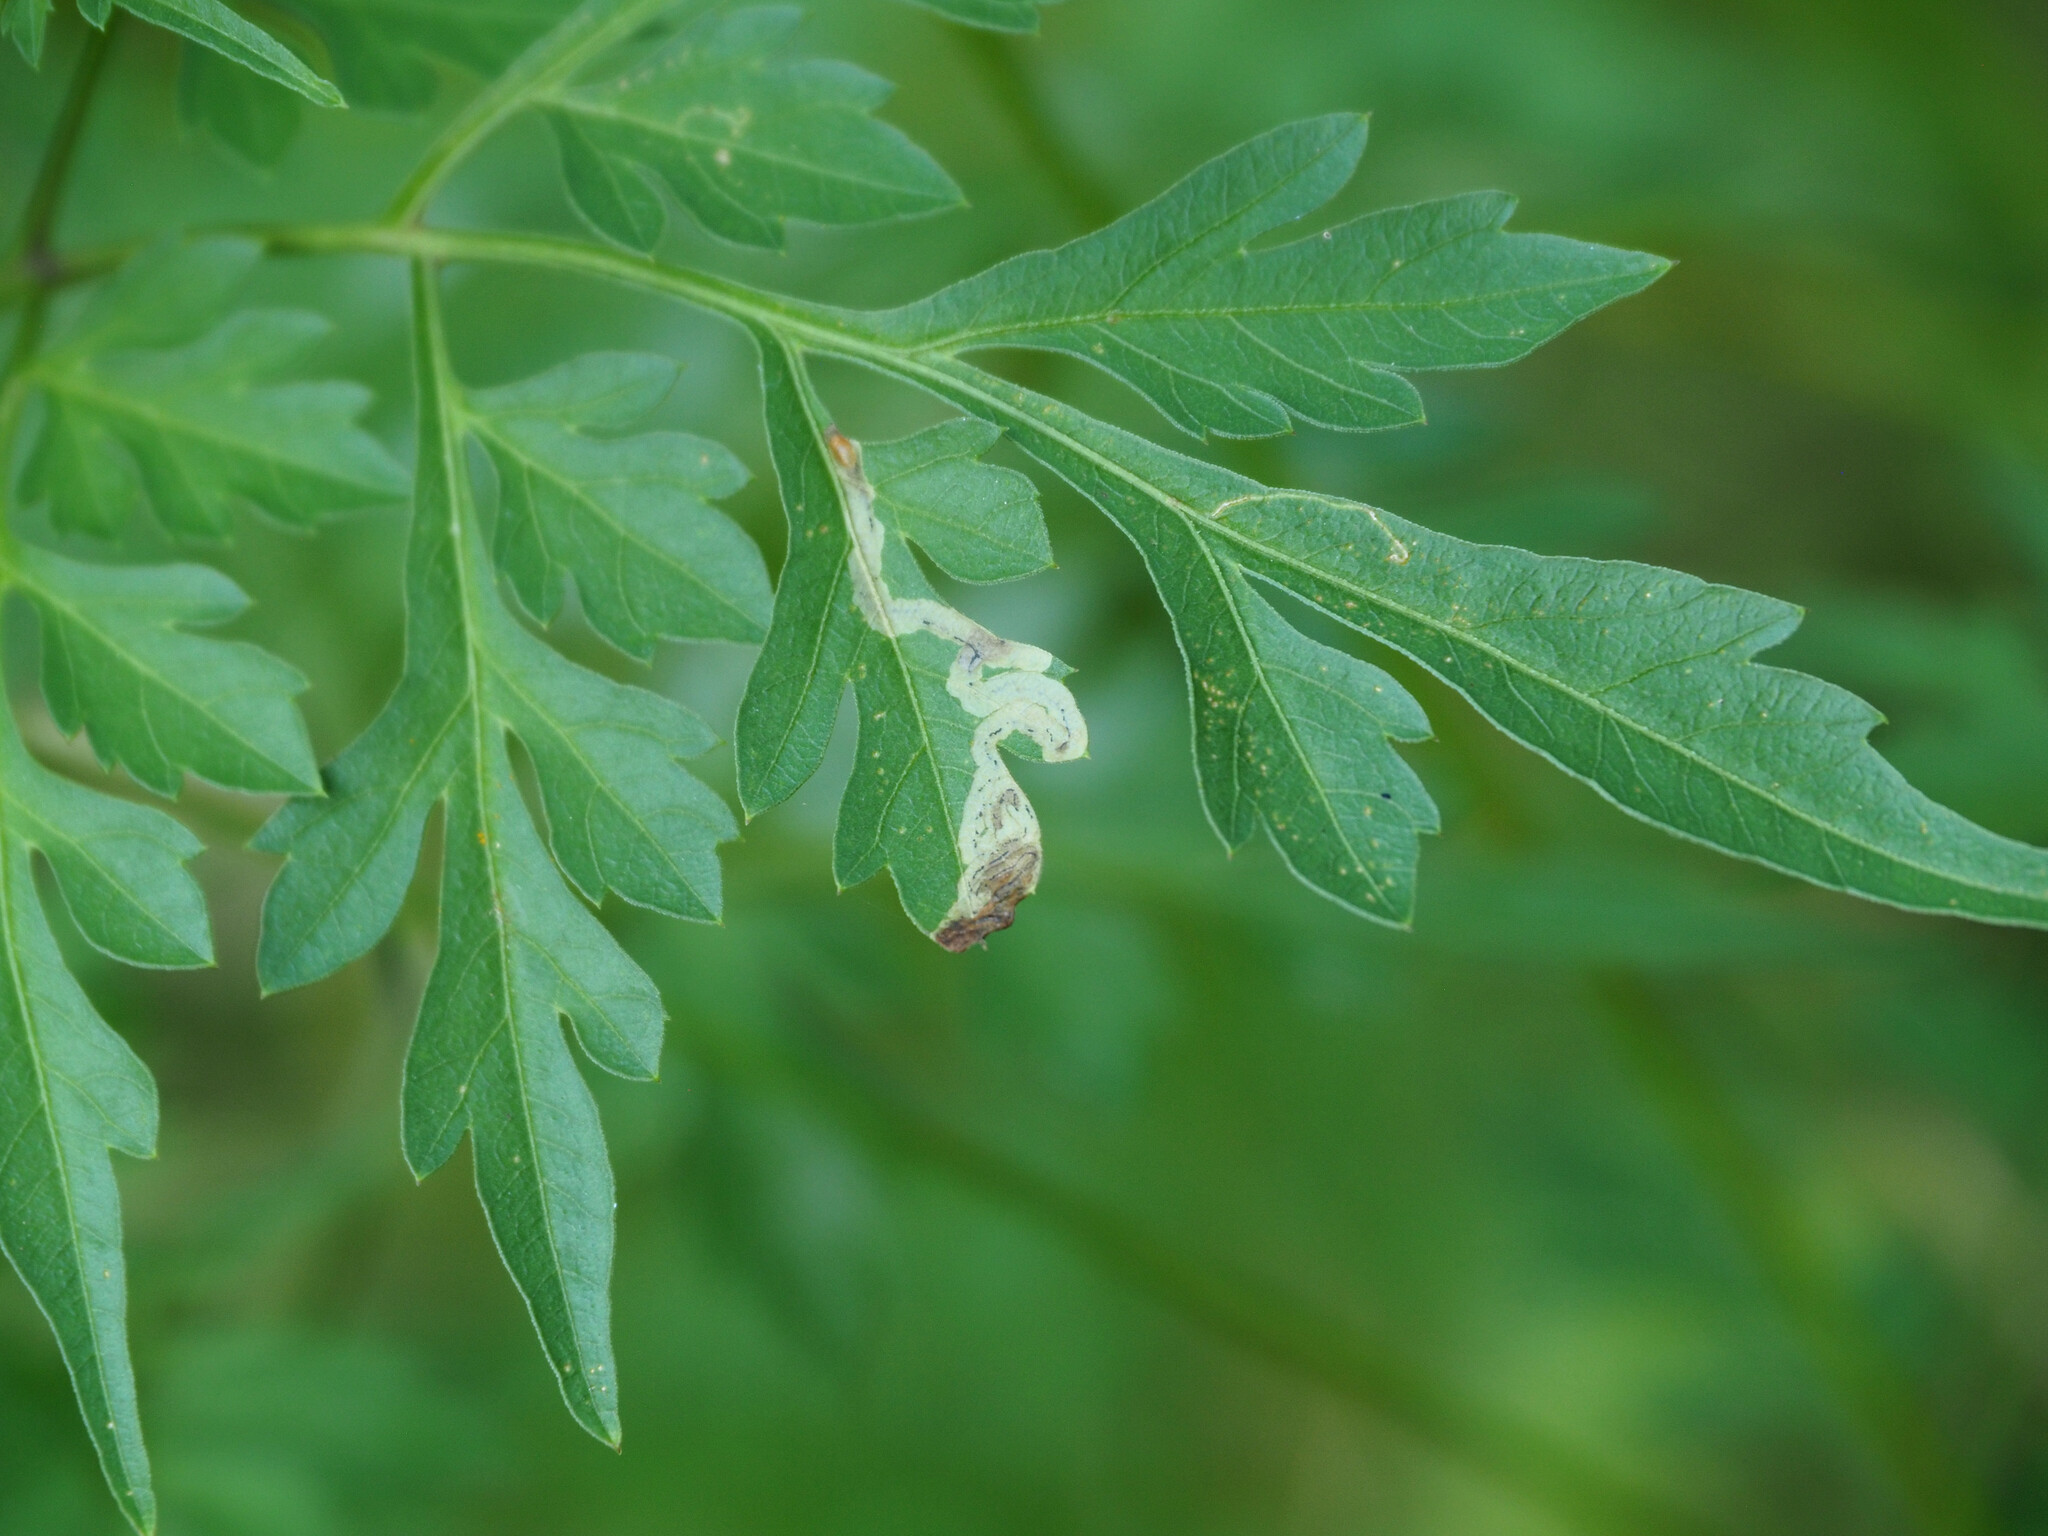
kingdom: Animalia
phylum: Arthropoda
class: Insecta
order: Diptera
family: Agromyzidae
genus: Liriomyza
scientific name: Liriomyza carphephori
